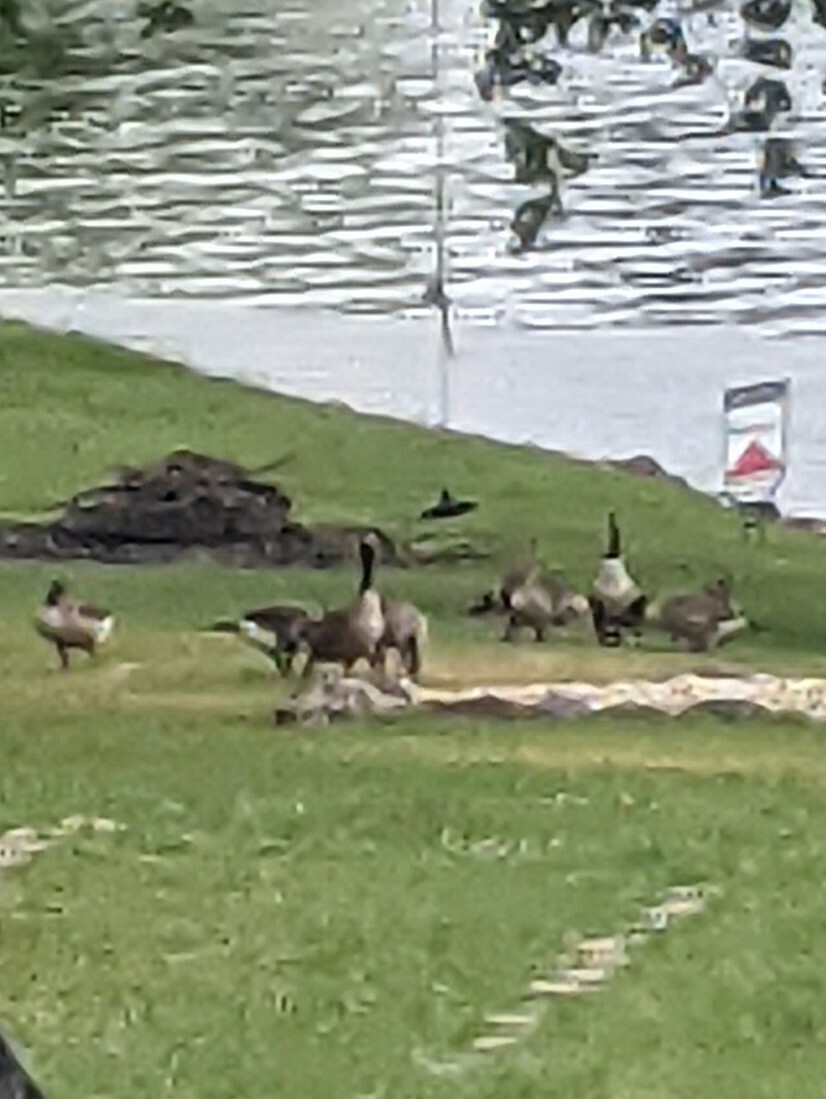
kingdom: Animalia
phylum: Chordata
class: Aves
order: Anseriformes
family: Anatidae
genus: Branta
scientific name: Branta canadensis
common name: Canada goose
